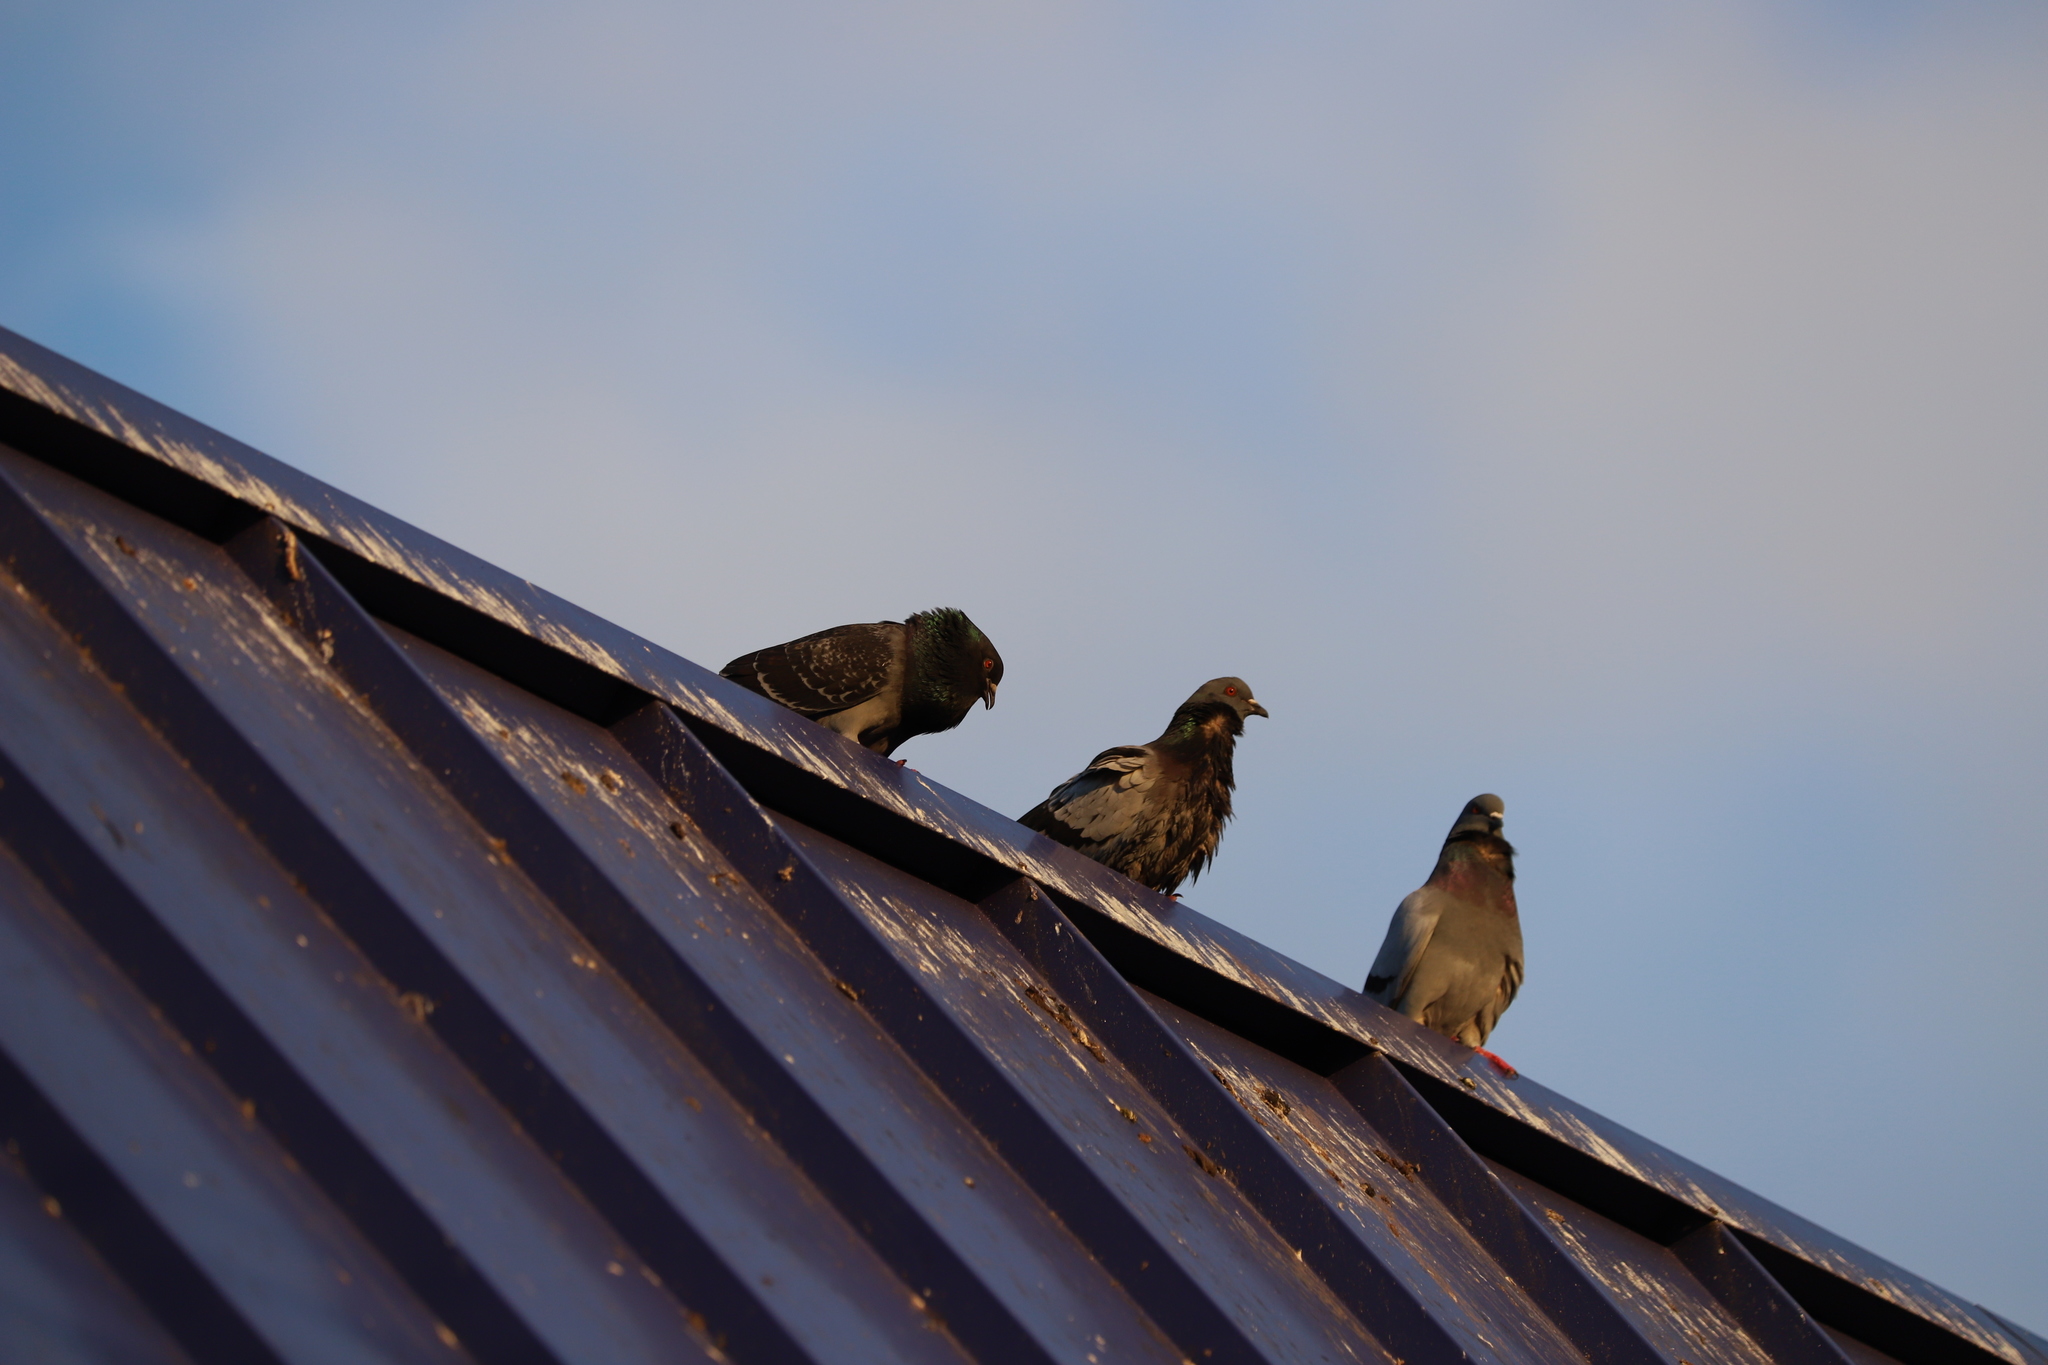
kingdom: Animalia
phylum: Chordata
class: Aves
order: Columbiformes
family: Columbidae
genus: Columba
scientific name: Columba livia
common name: Rock pigeon
